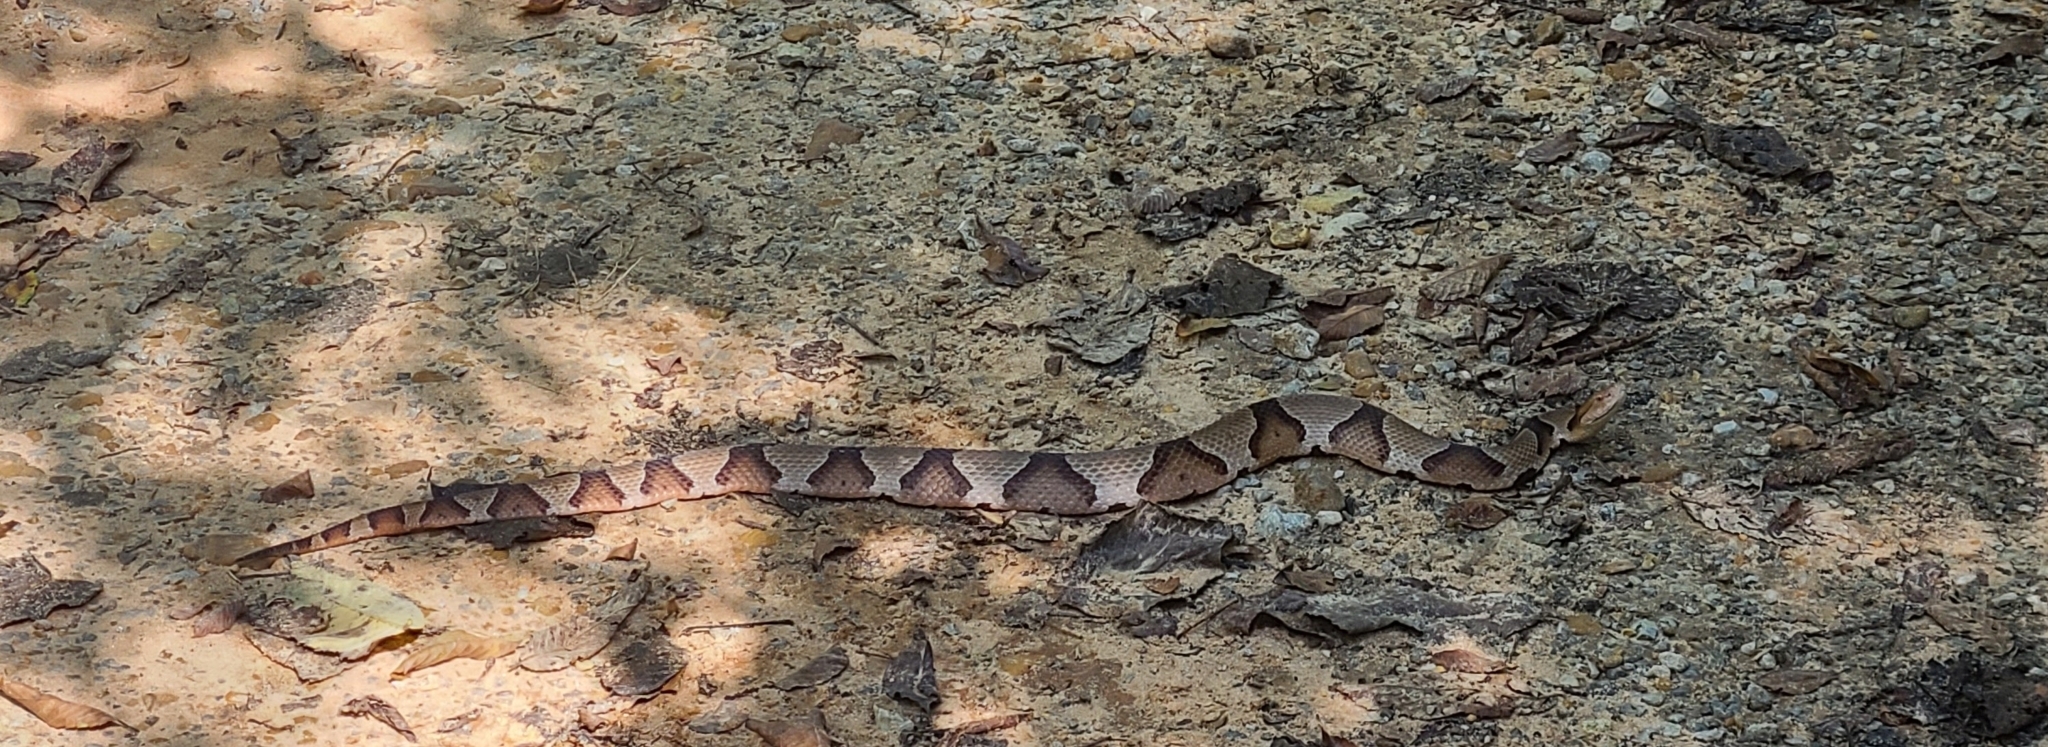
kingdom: Animalia
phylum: Chordata
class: Squamata
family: Viperidae
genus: Agkistrodon
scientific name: Agkistrodon contortrix
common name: Northern copperhead
